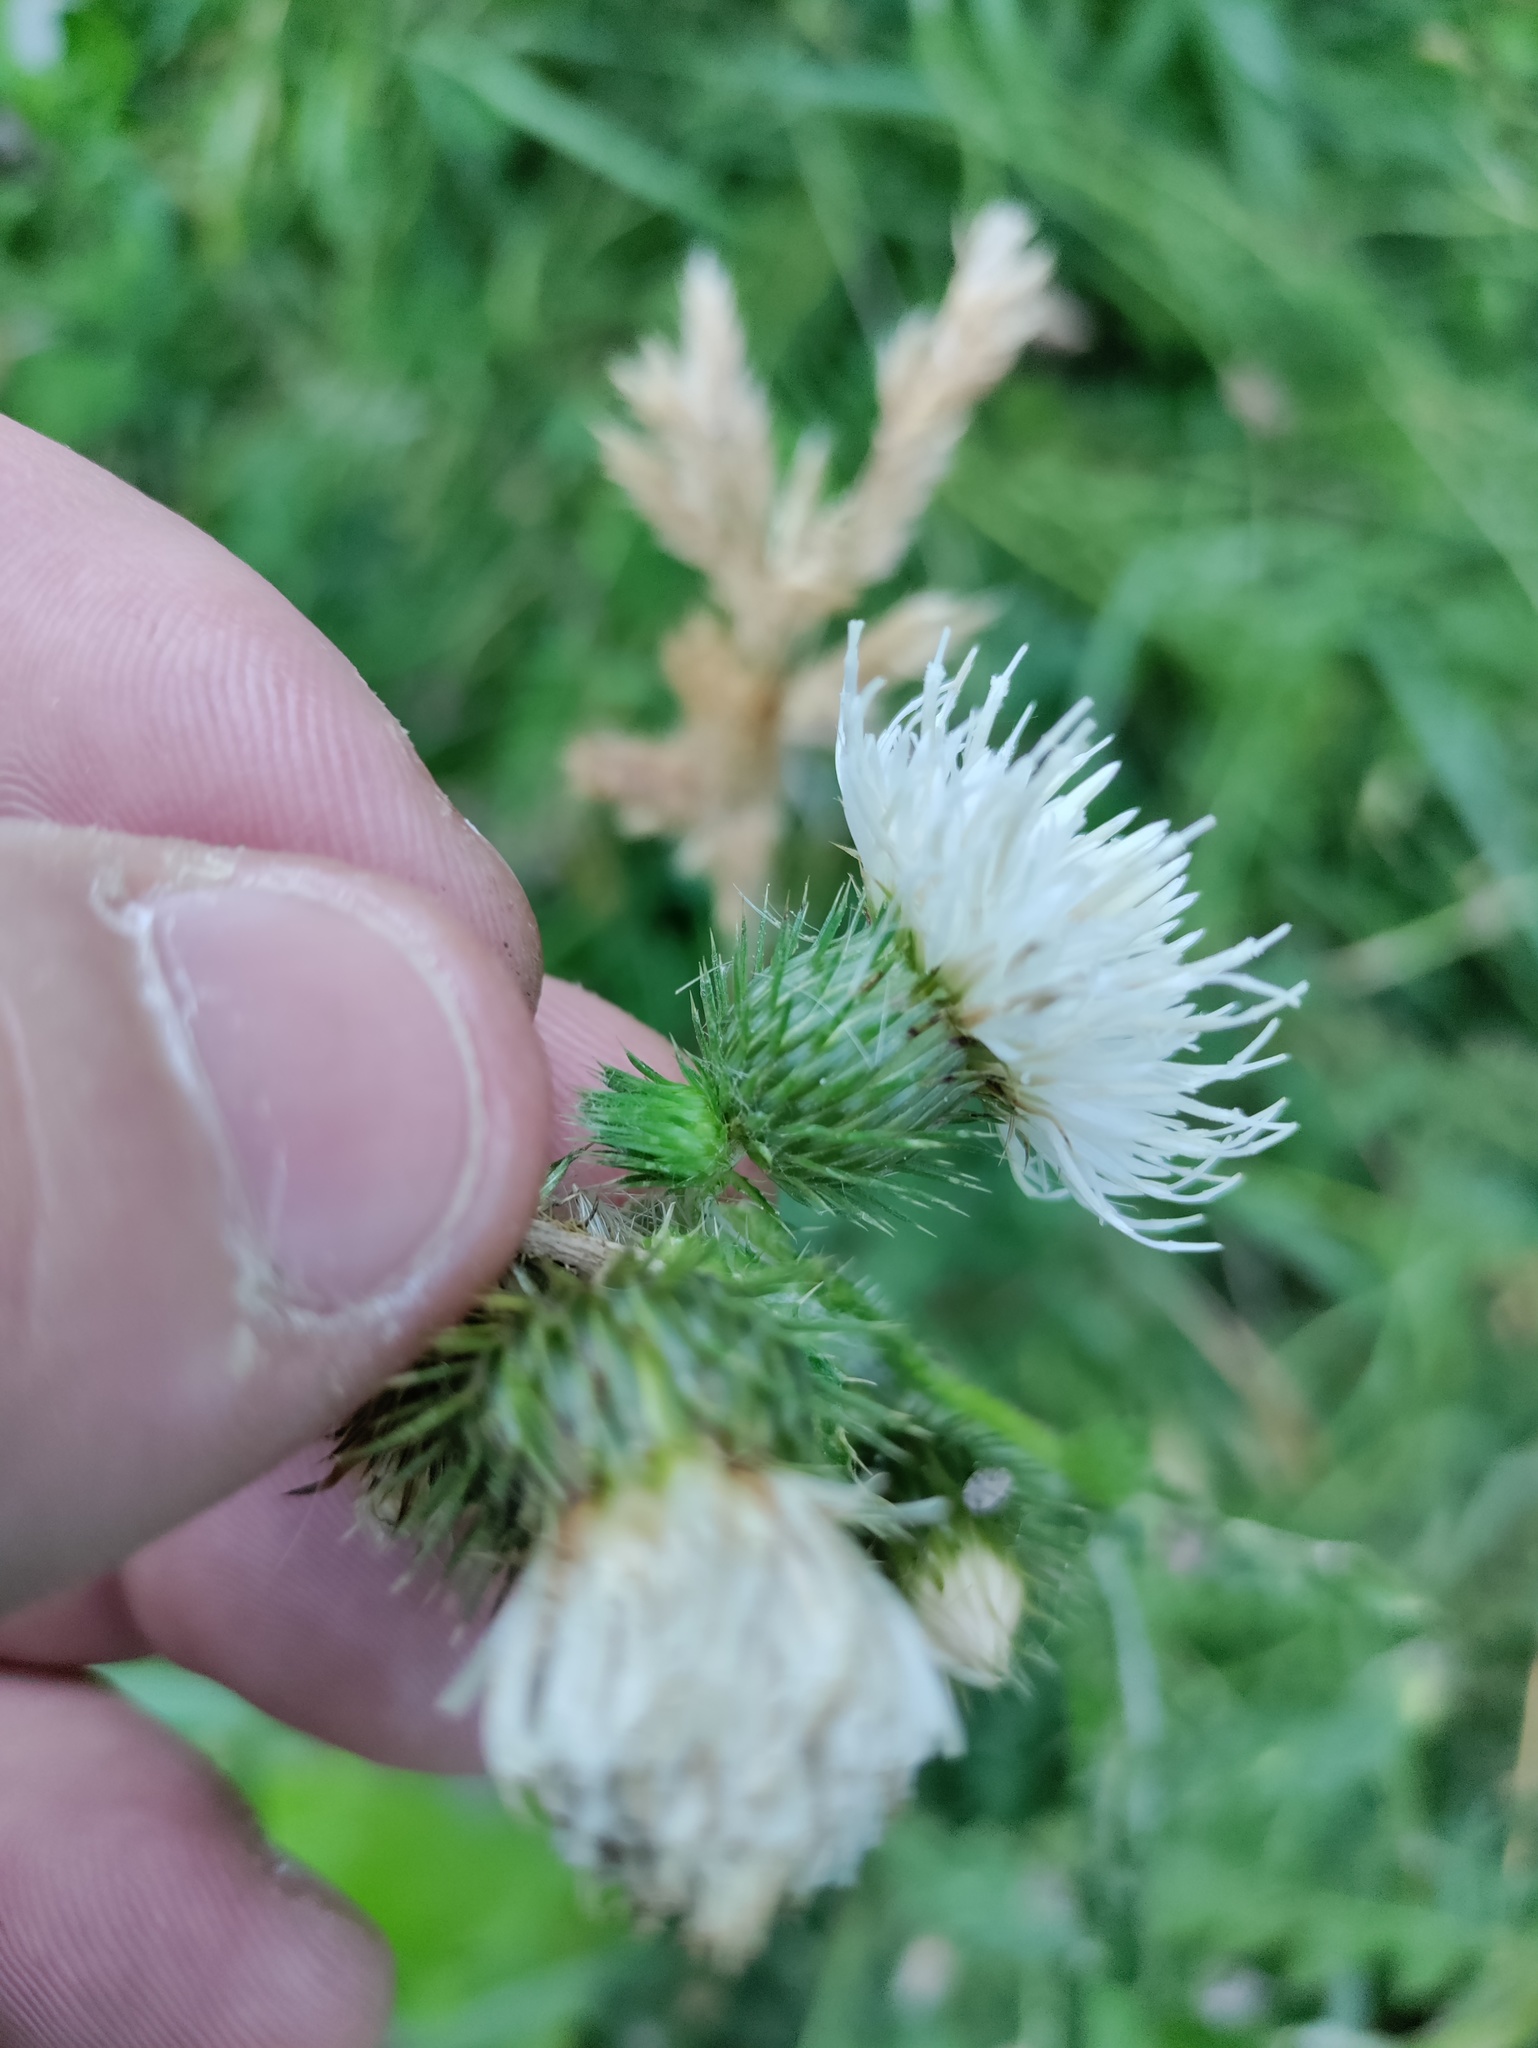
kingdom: Plantae
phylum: Tracheophyta
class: Magnoliopsida
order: Asterales
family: Asteraceae
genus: Carduus
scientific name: Carduus crispus
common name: Welted thistle
